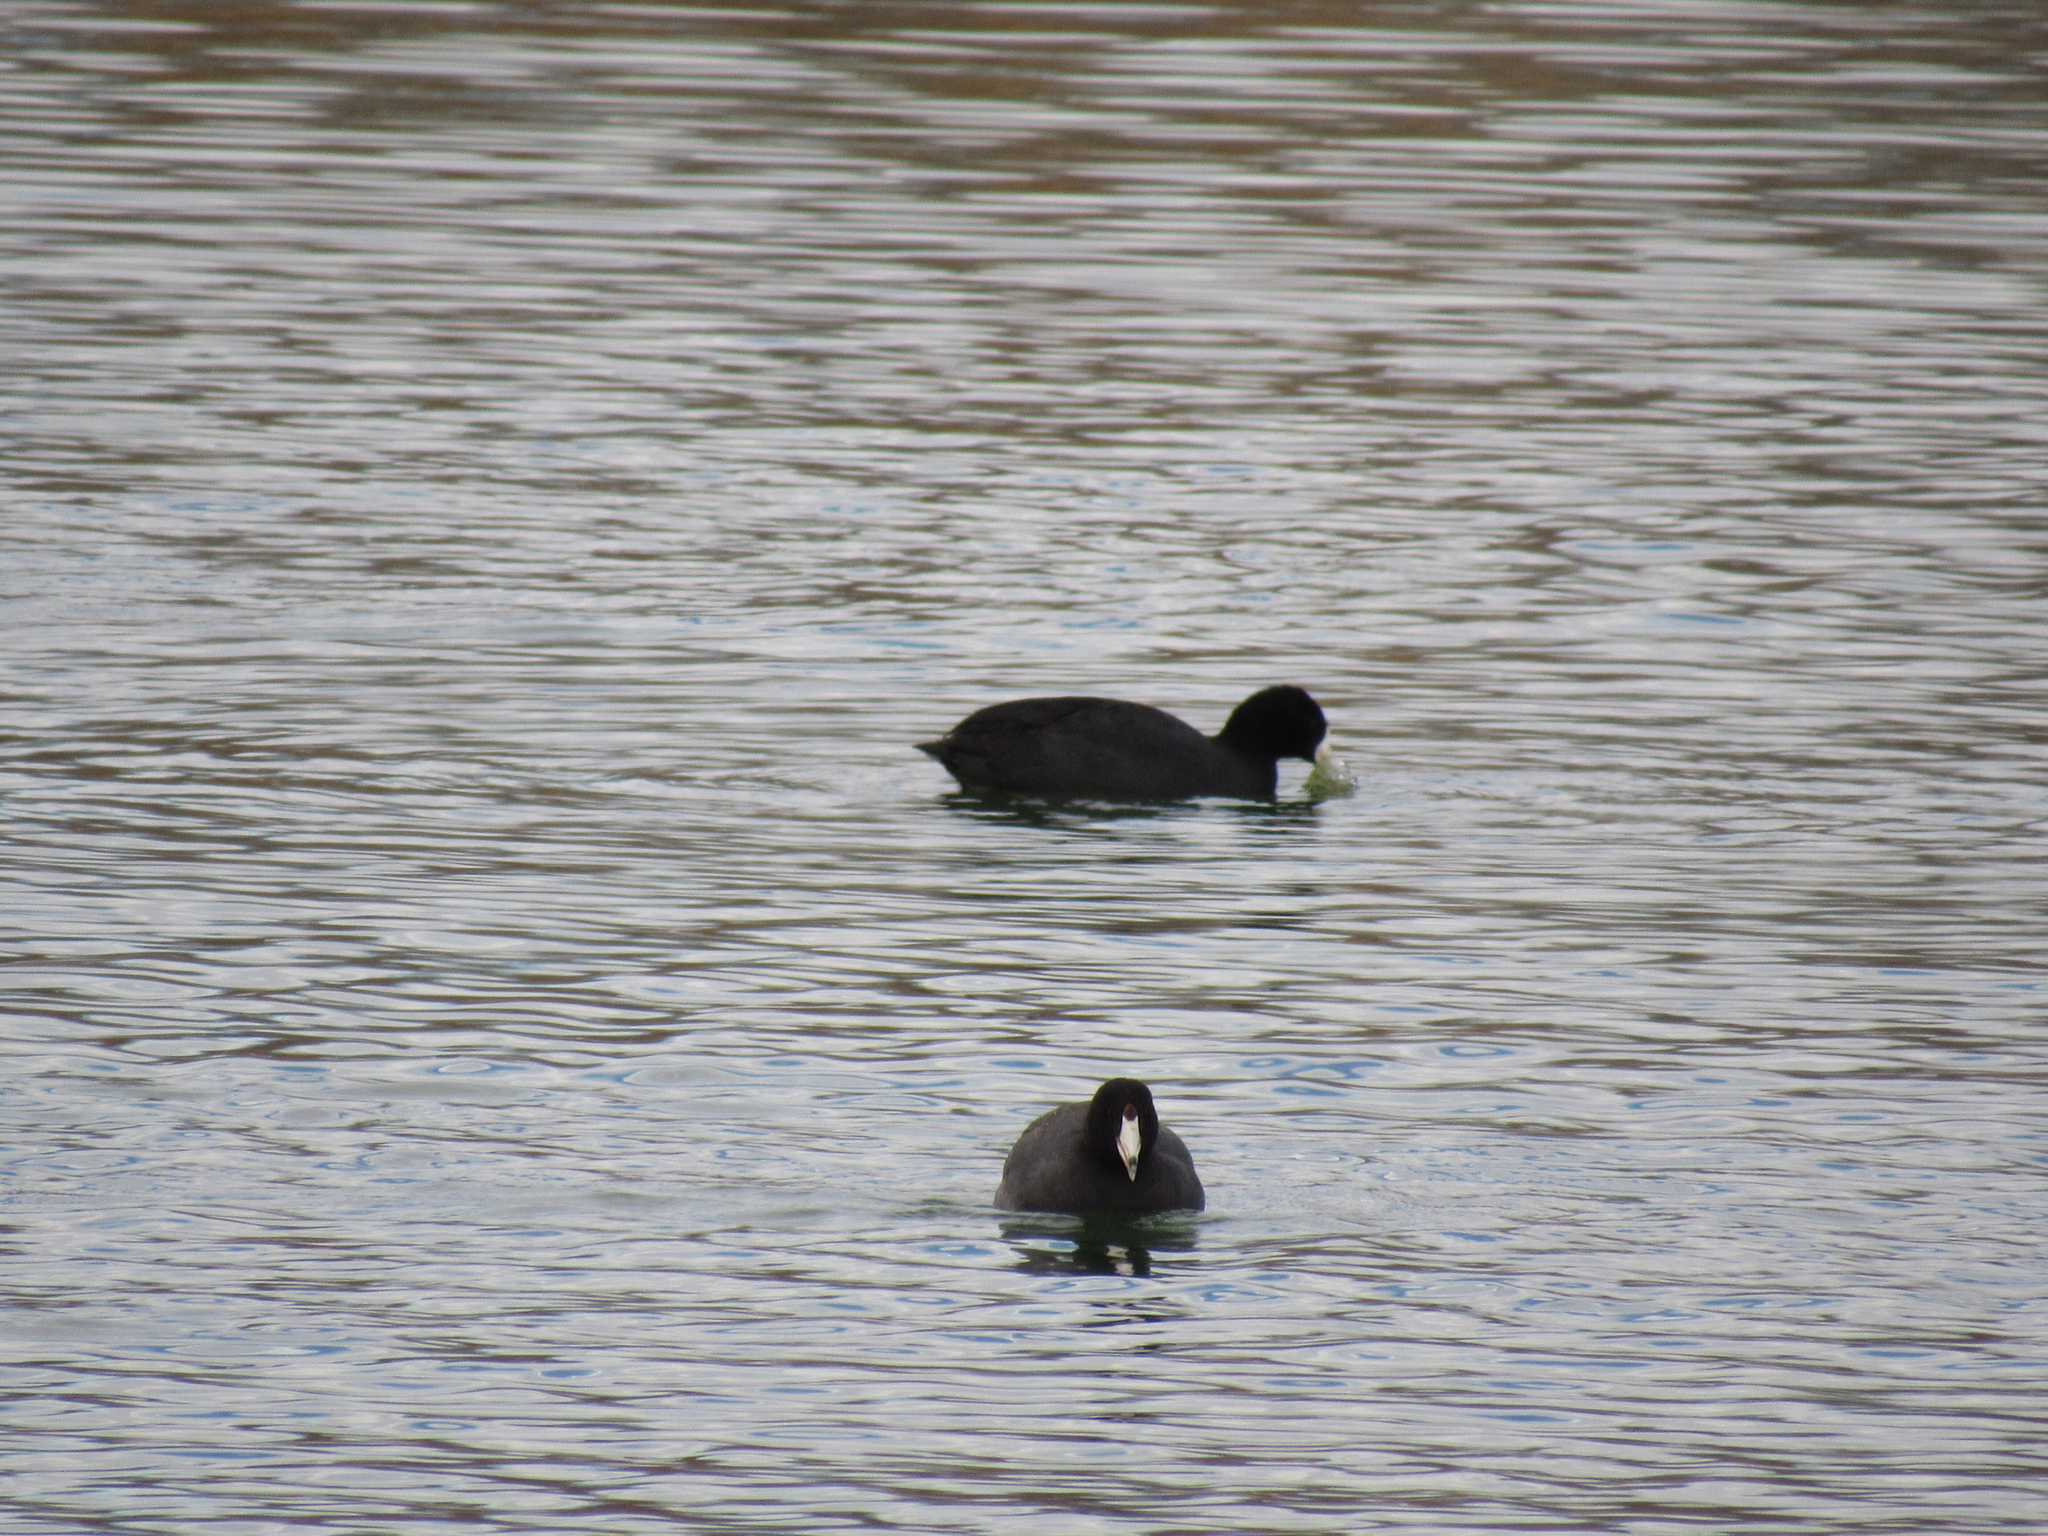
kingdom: Animalia
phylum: Chordata
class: Aves
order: Gruiformes
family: Rallidae
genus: Fulica
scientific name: Fulica americana
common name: American coot
